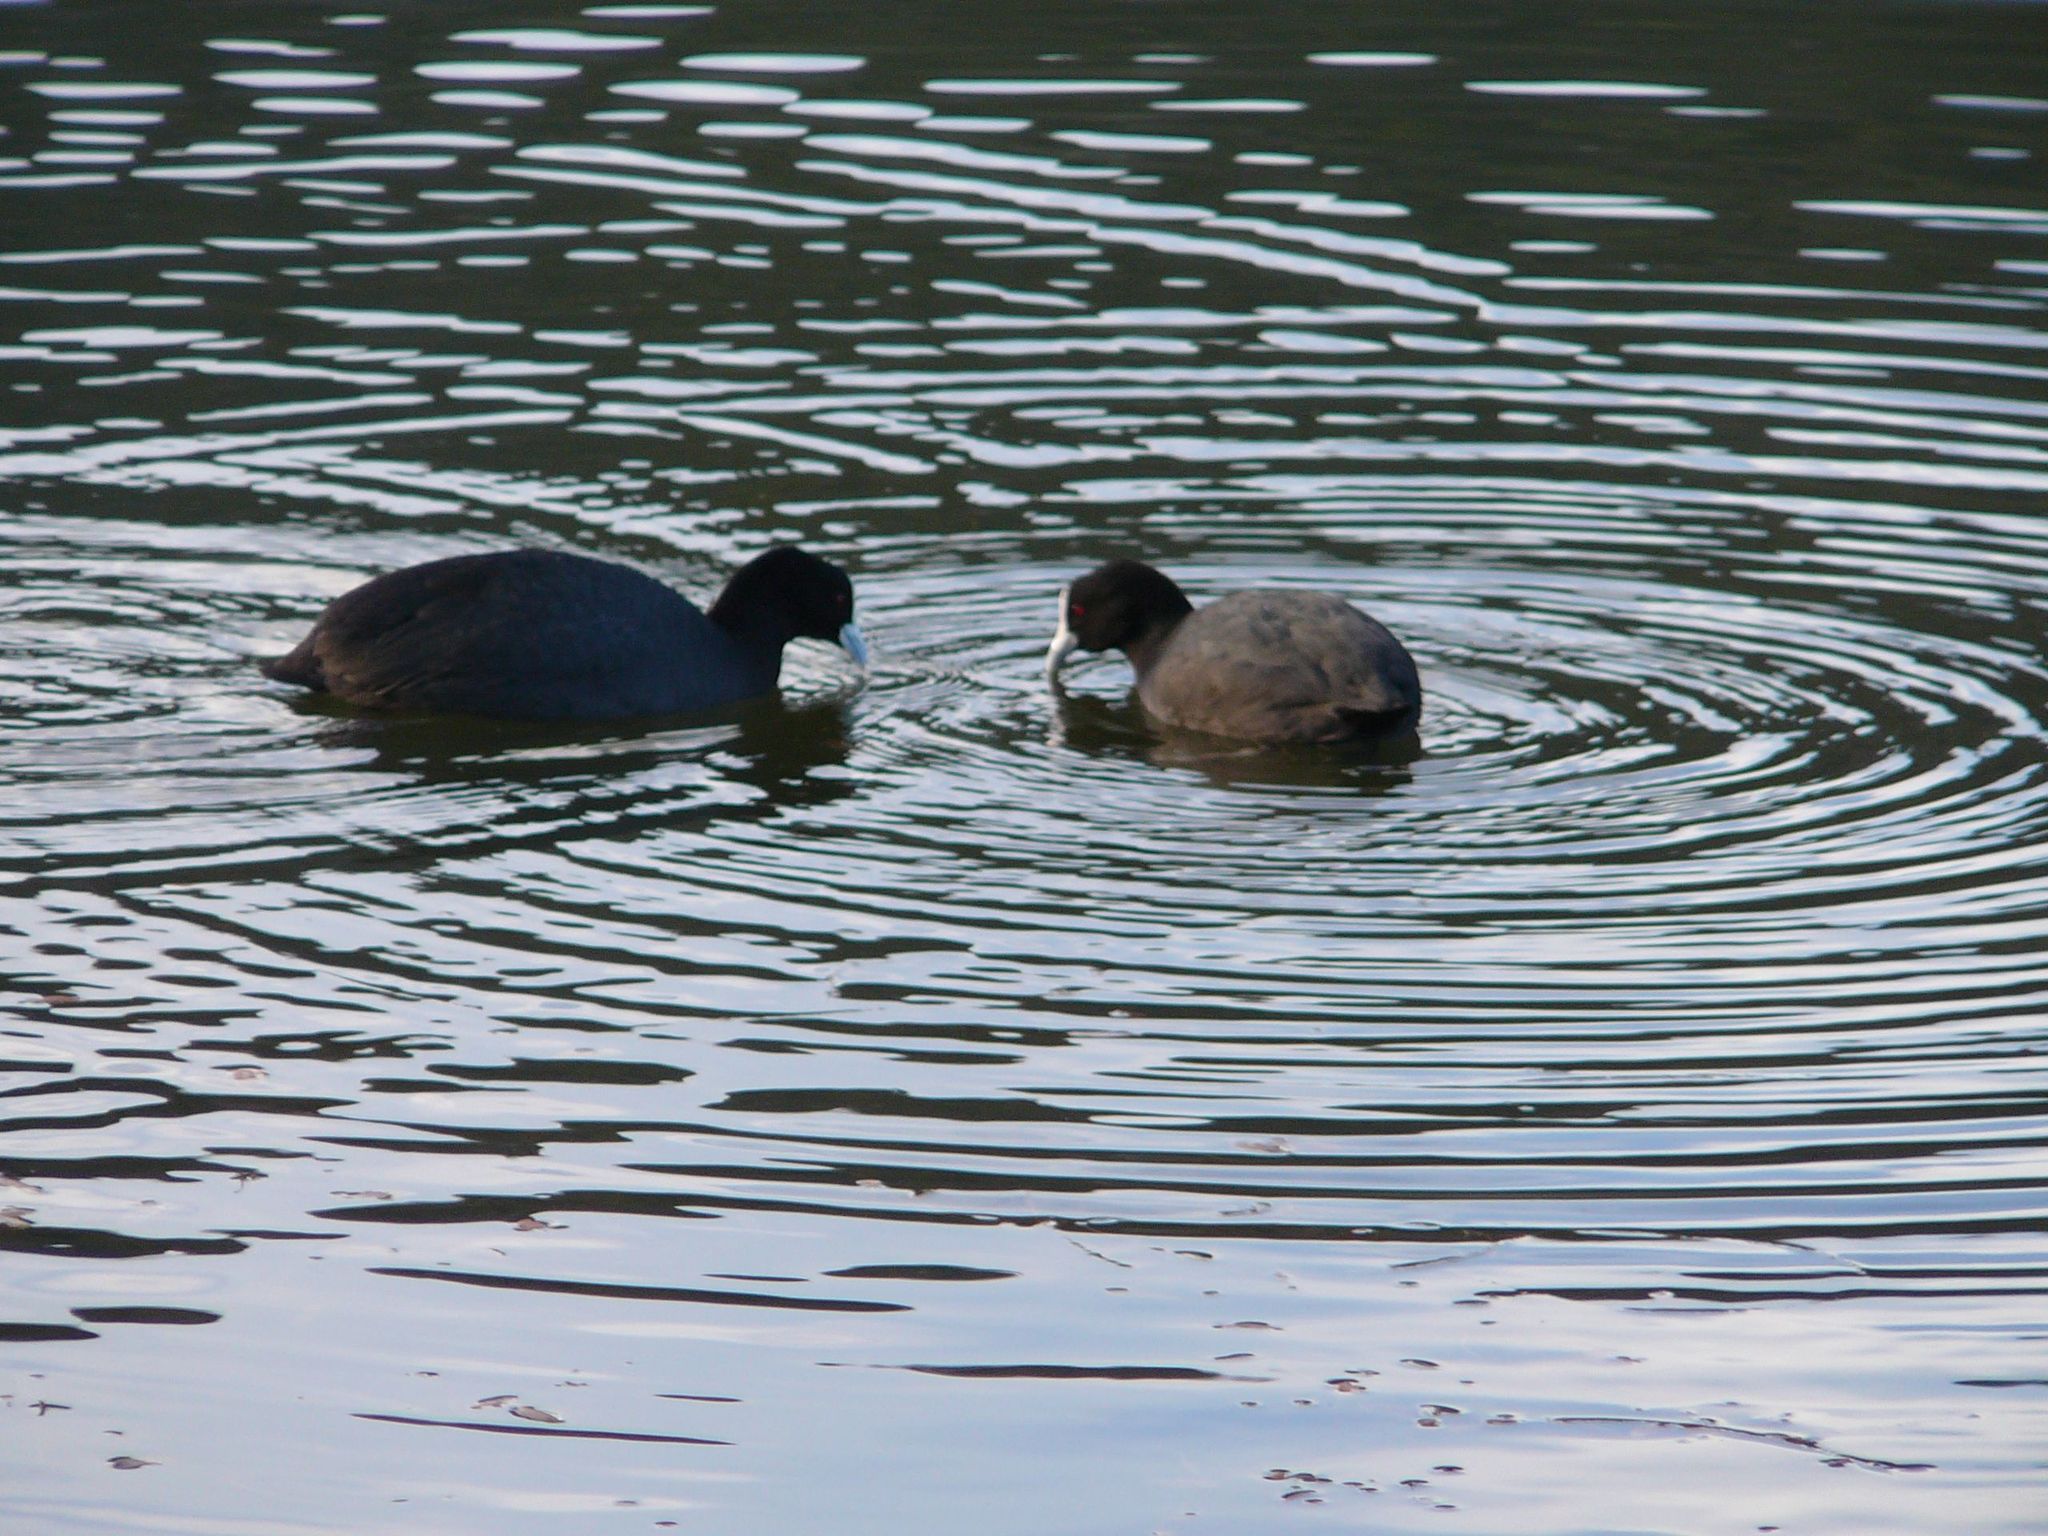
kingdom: Animalia
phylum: Chordata
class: Aves
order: Gruiformes
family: Rallidae
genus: Fulica
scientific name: Fulica atra
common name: Eurasian coot
